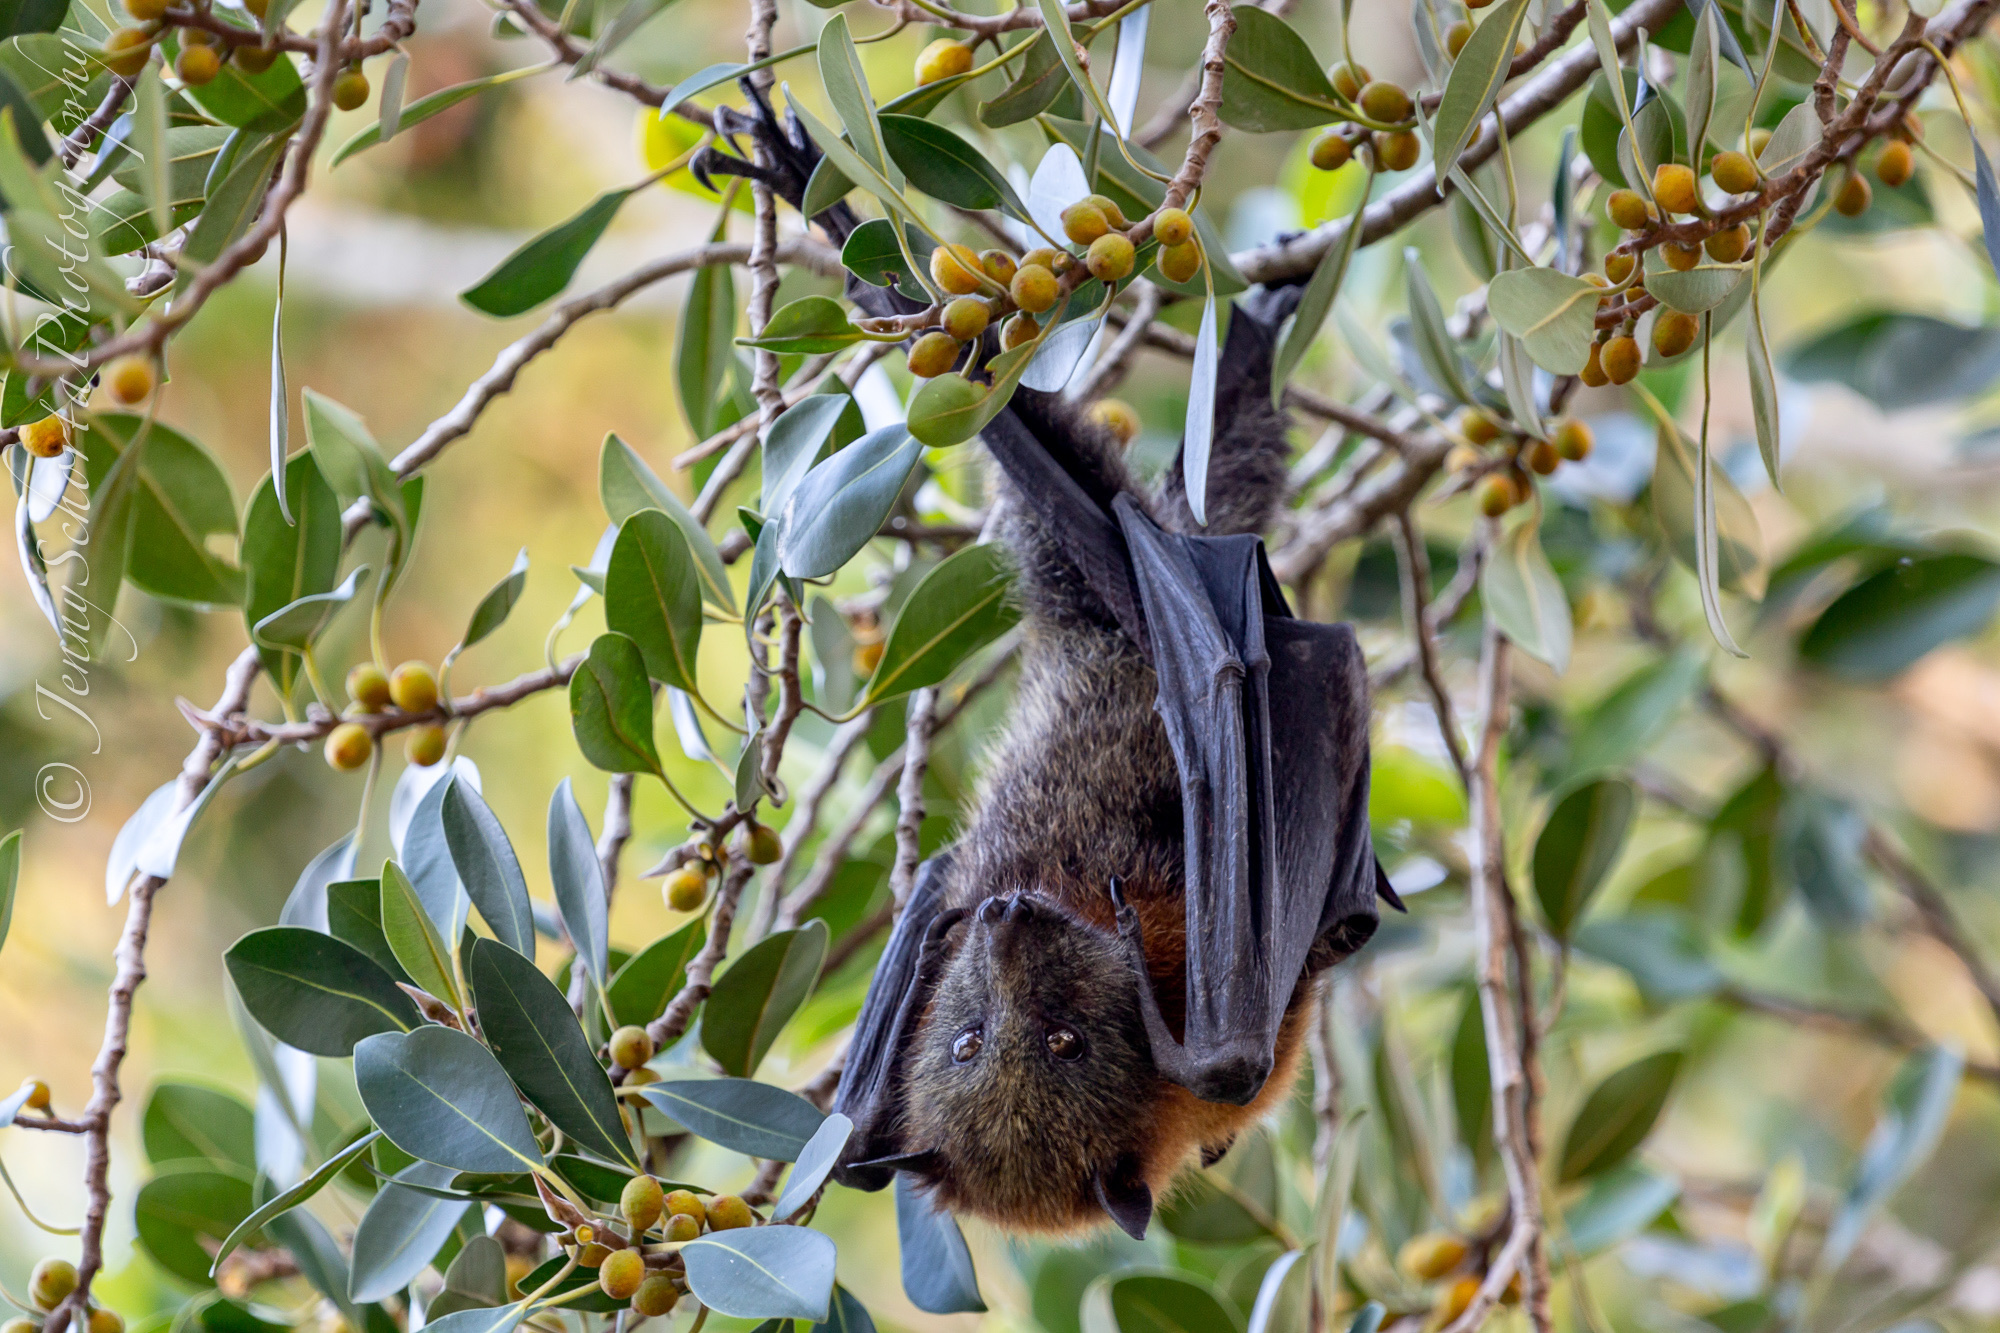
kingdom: Animalia
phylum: Chordata
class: Mammalia
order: Chiroptera
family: Pteropodidae
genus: Pteropus
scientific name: Pteropus poliocephalus
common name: Gray-headed flying fox
